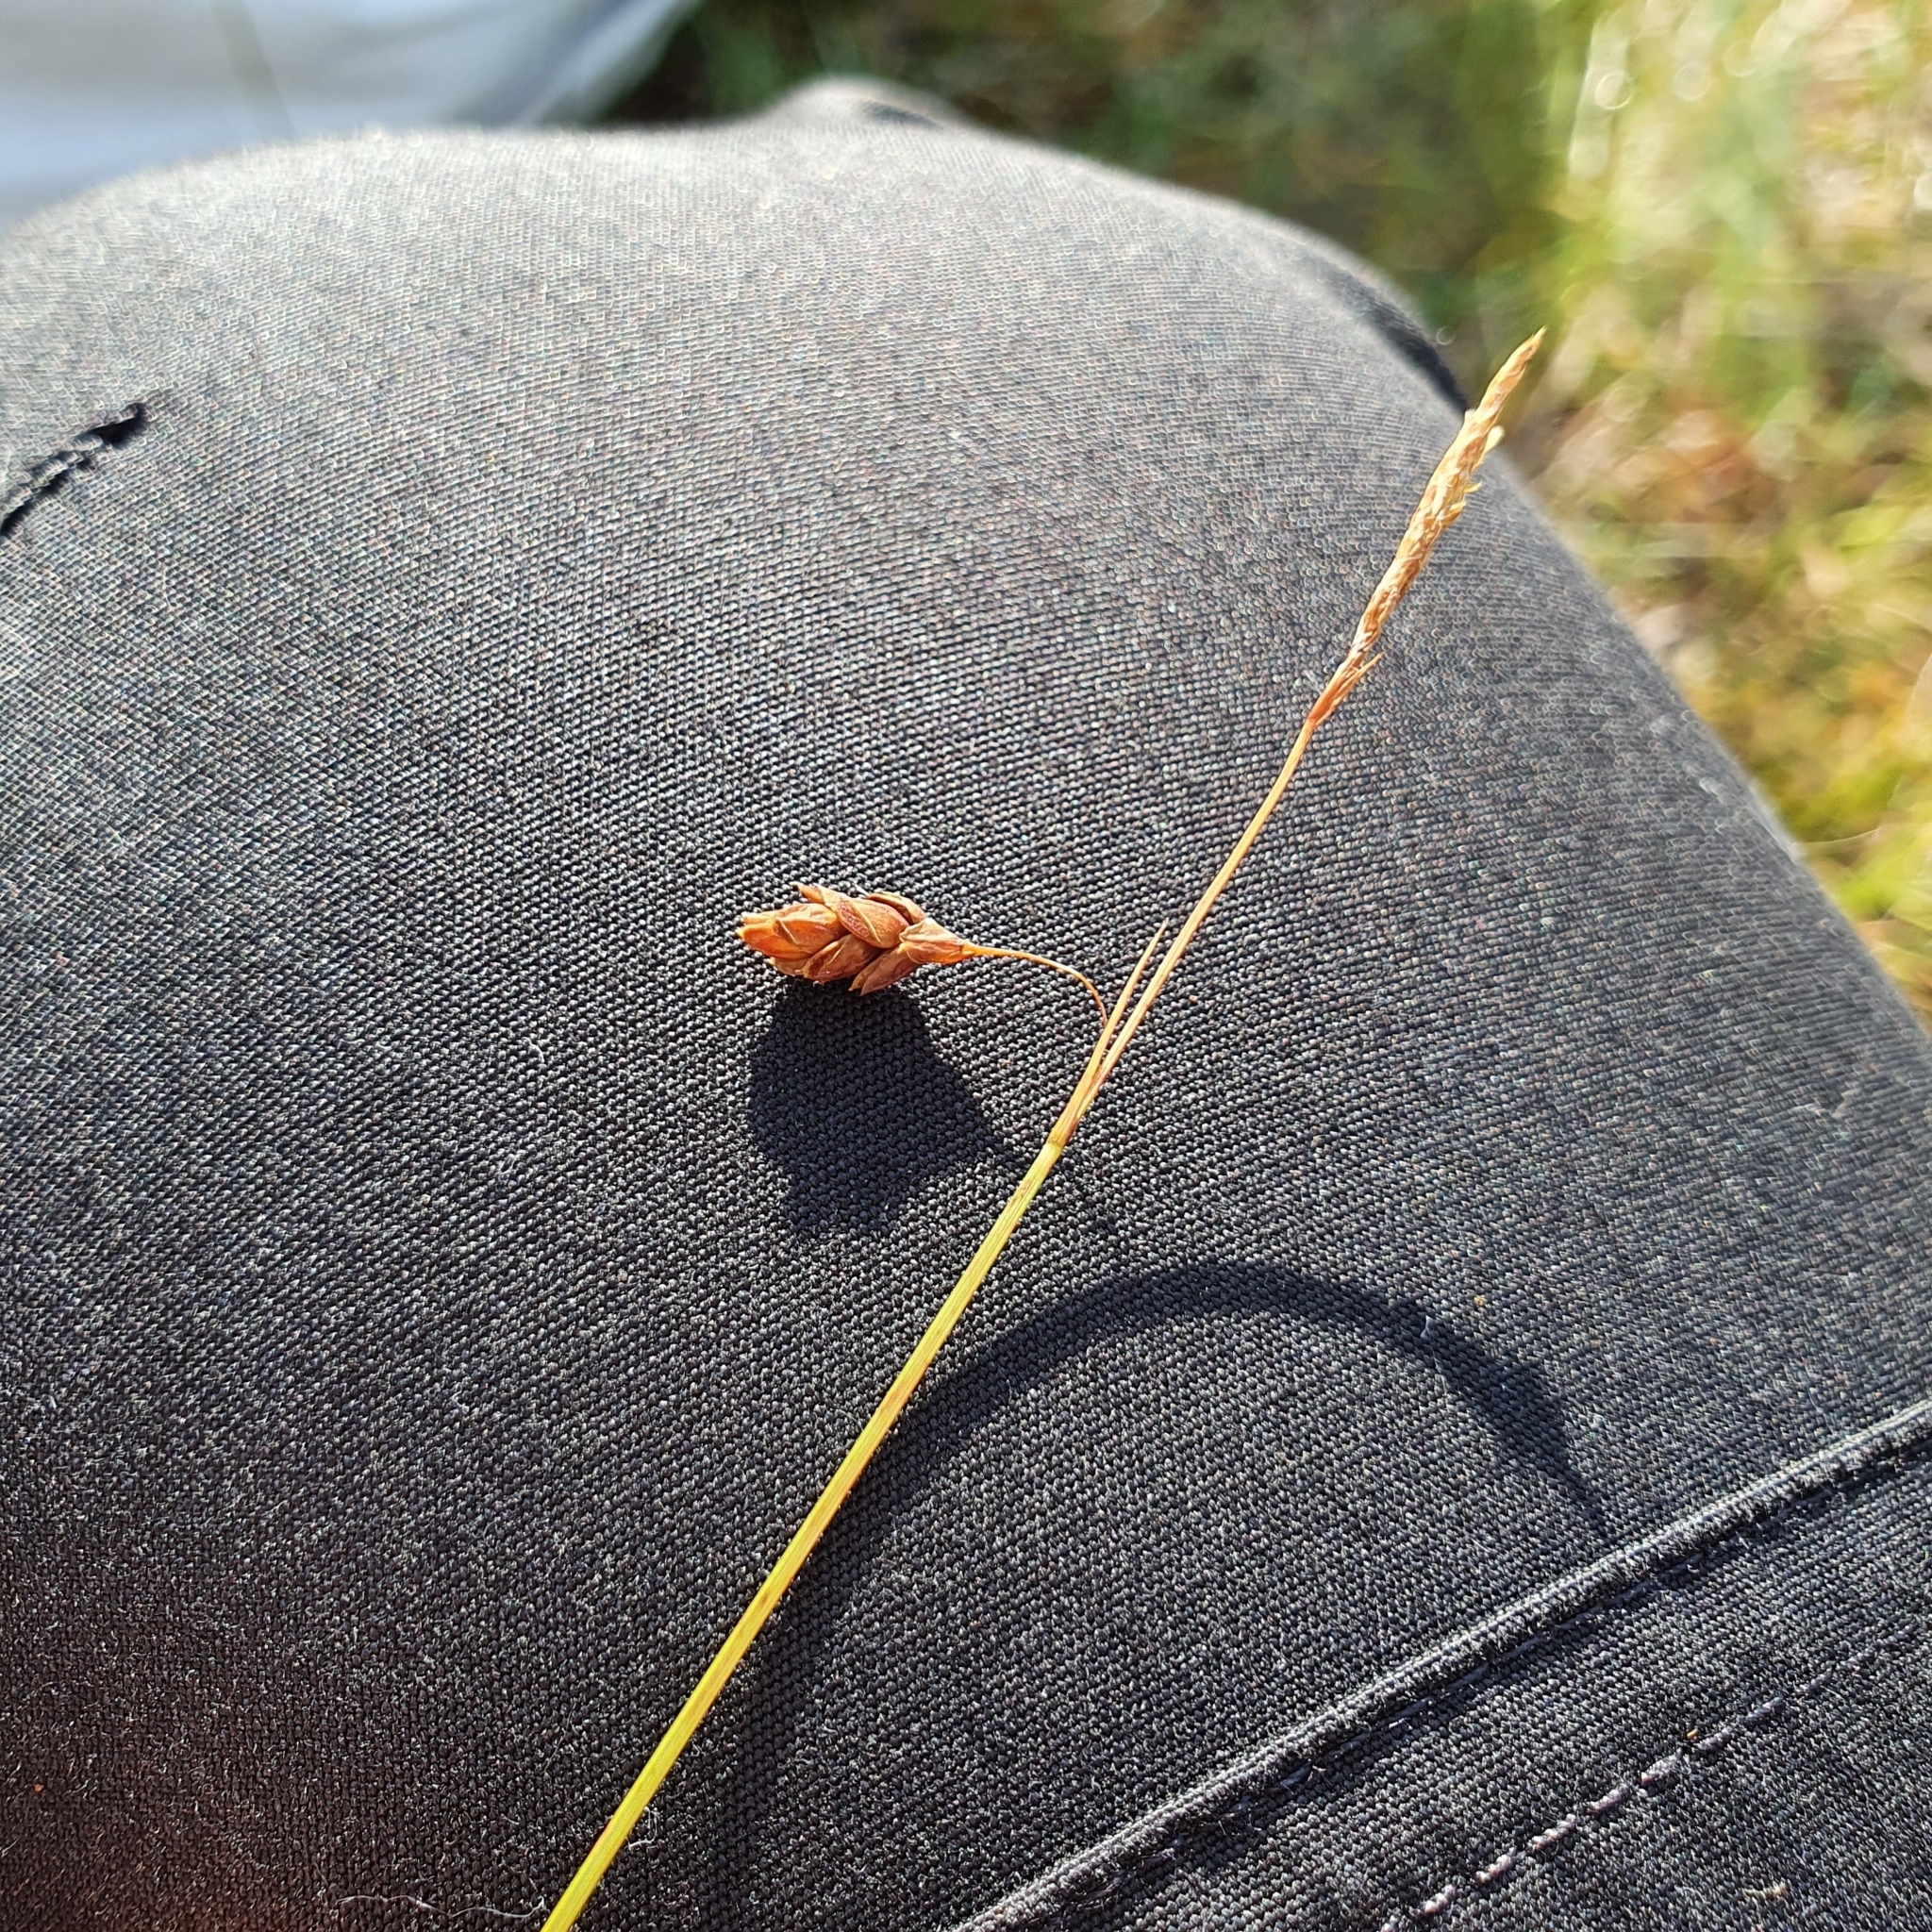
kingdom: Plantae
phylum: Tracheophyta
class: Liliopsida
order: Poales
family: Cyperaceae
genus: Carex
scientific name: Carex limosa
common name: Bog sedge
